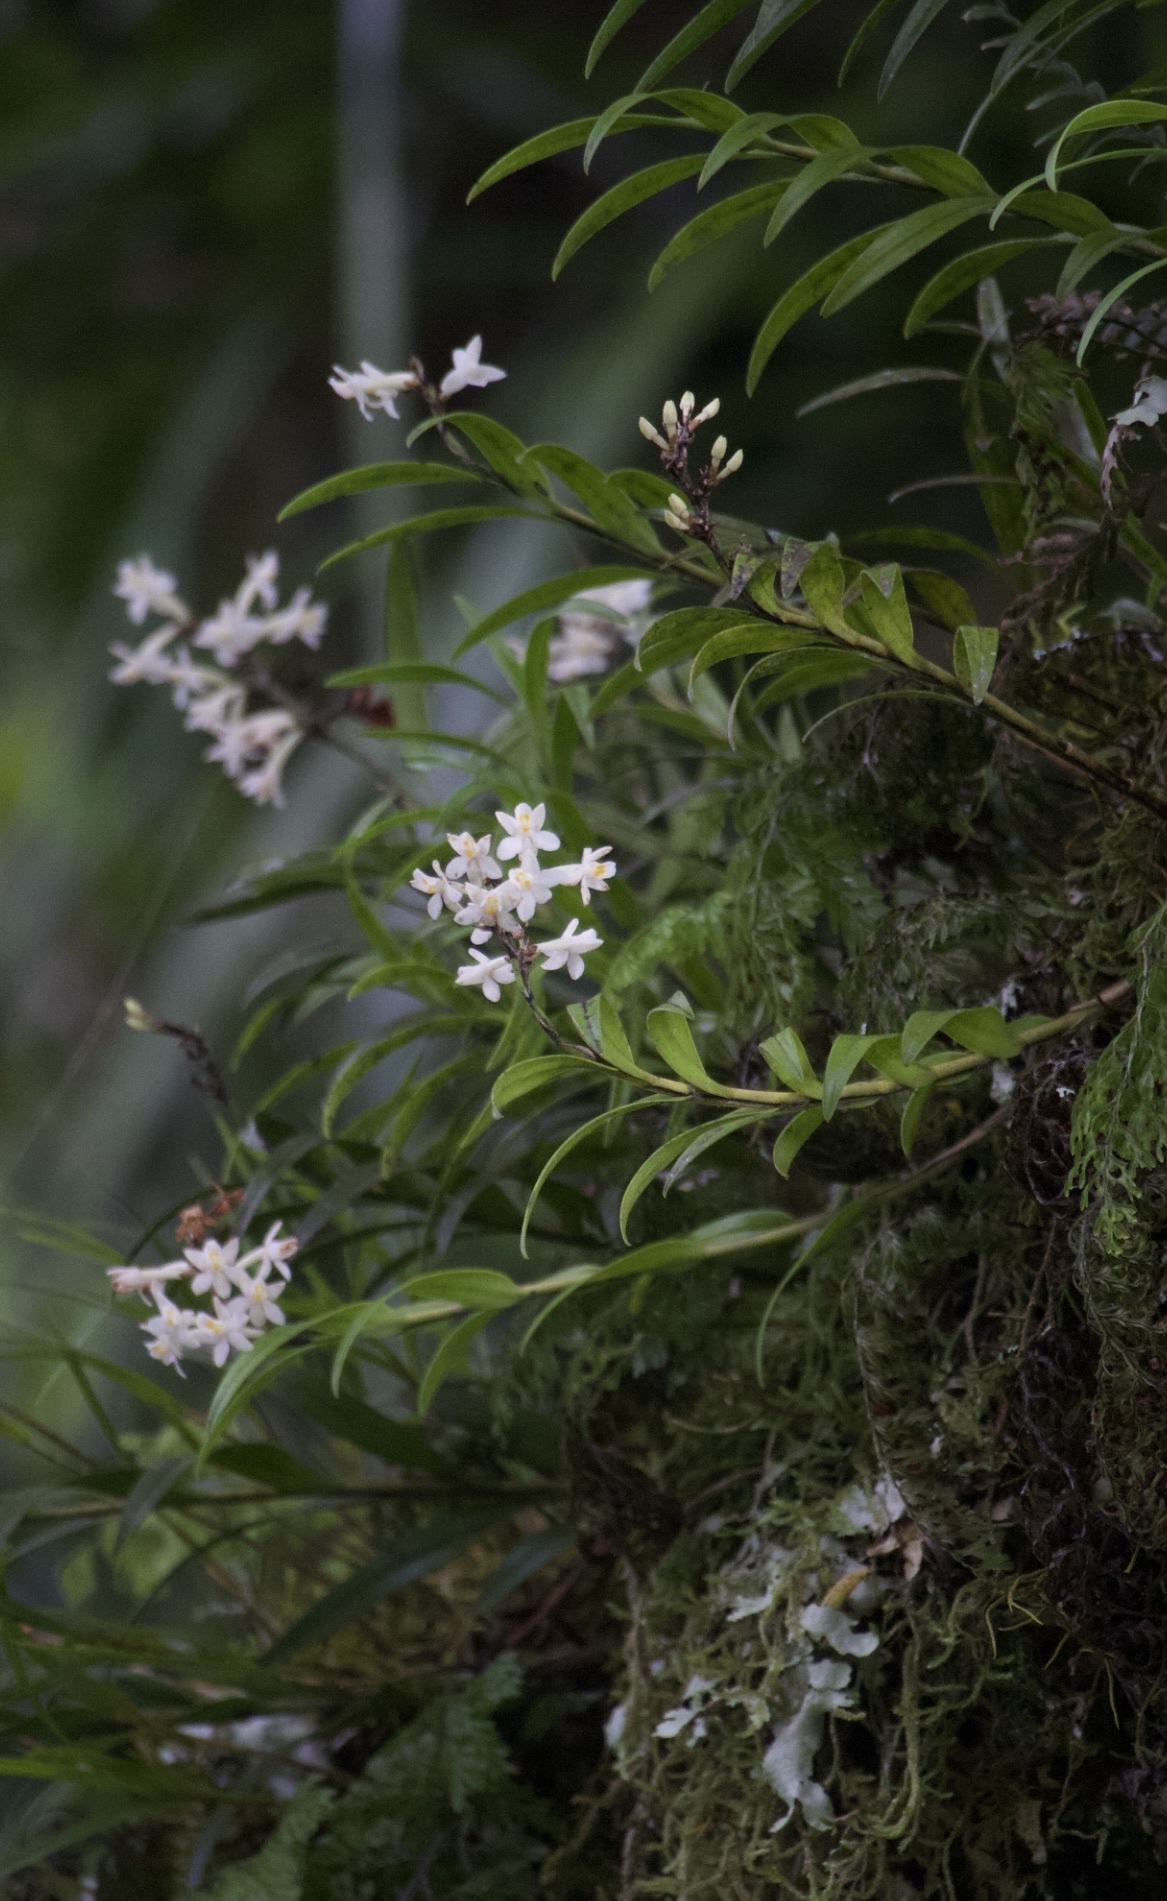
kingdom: Plantae
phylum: Tracheophyta
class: Liliopsida
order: Asparagales
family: Orchidaceae
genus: Earina
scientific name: Earina autumnalis
